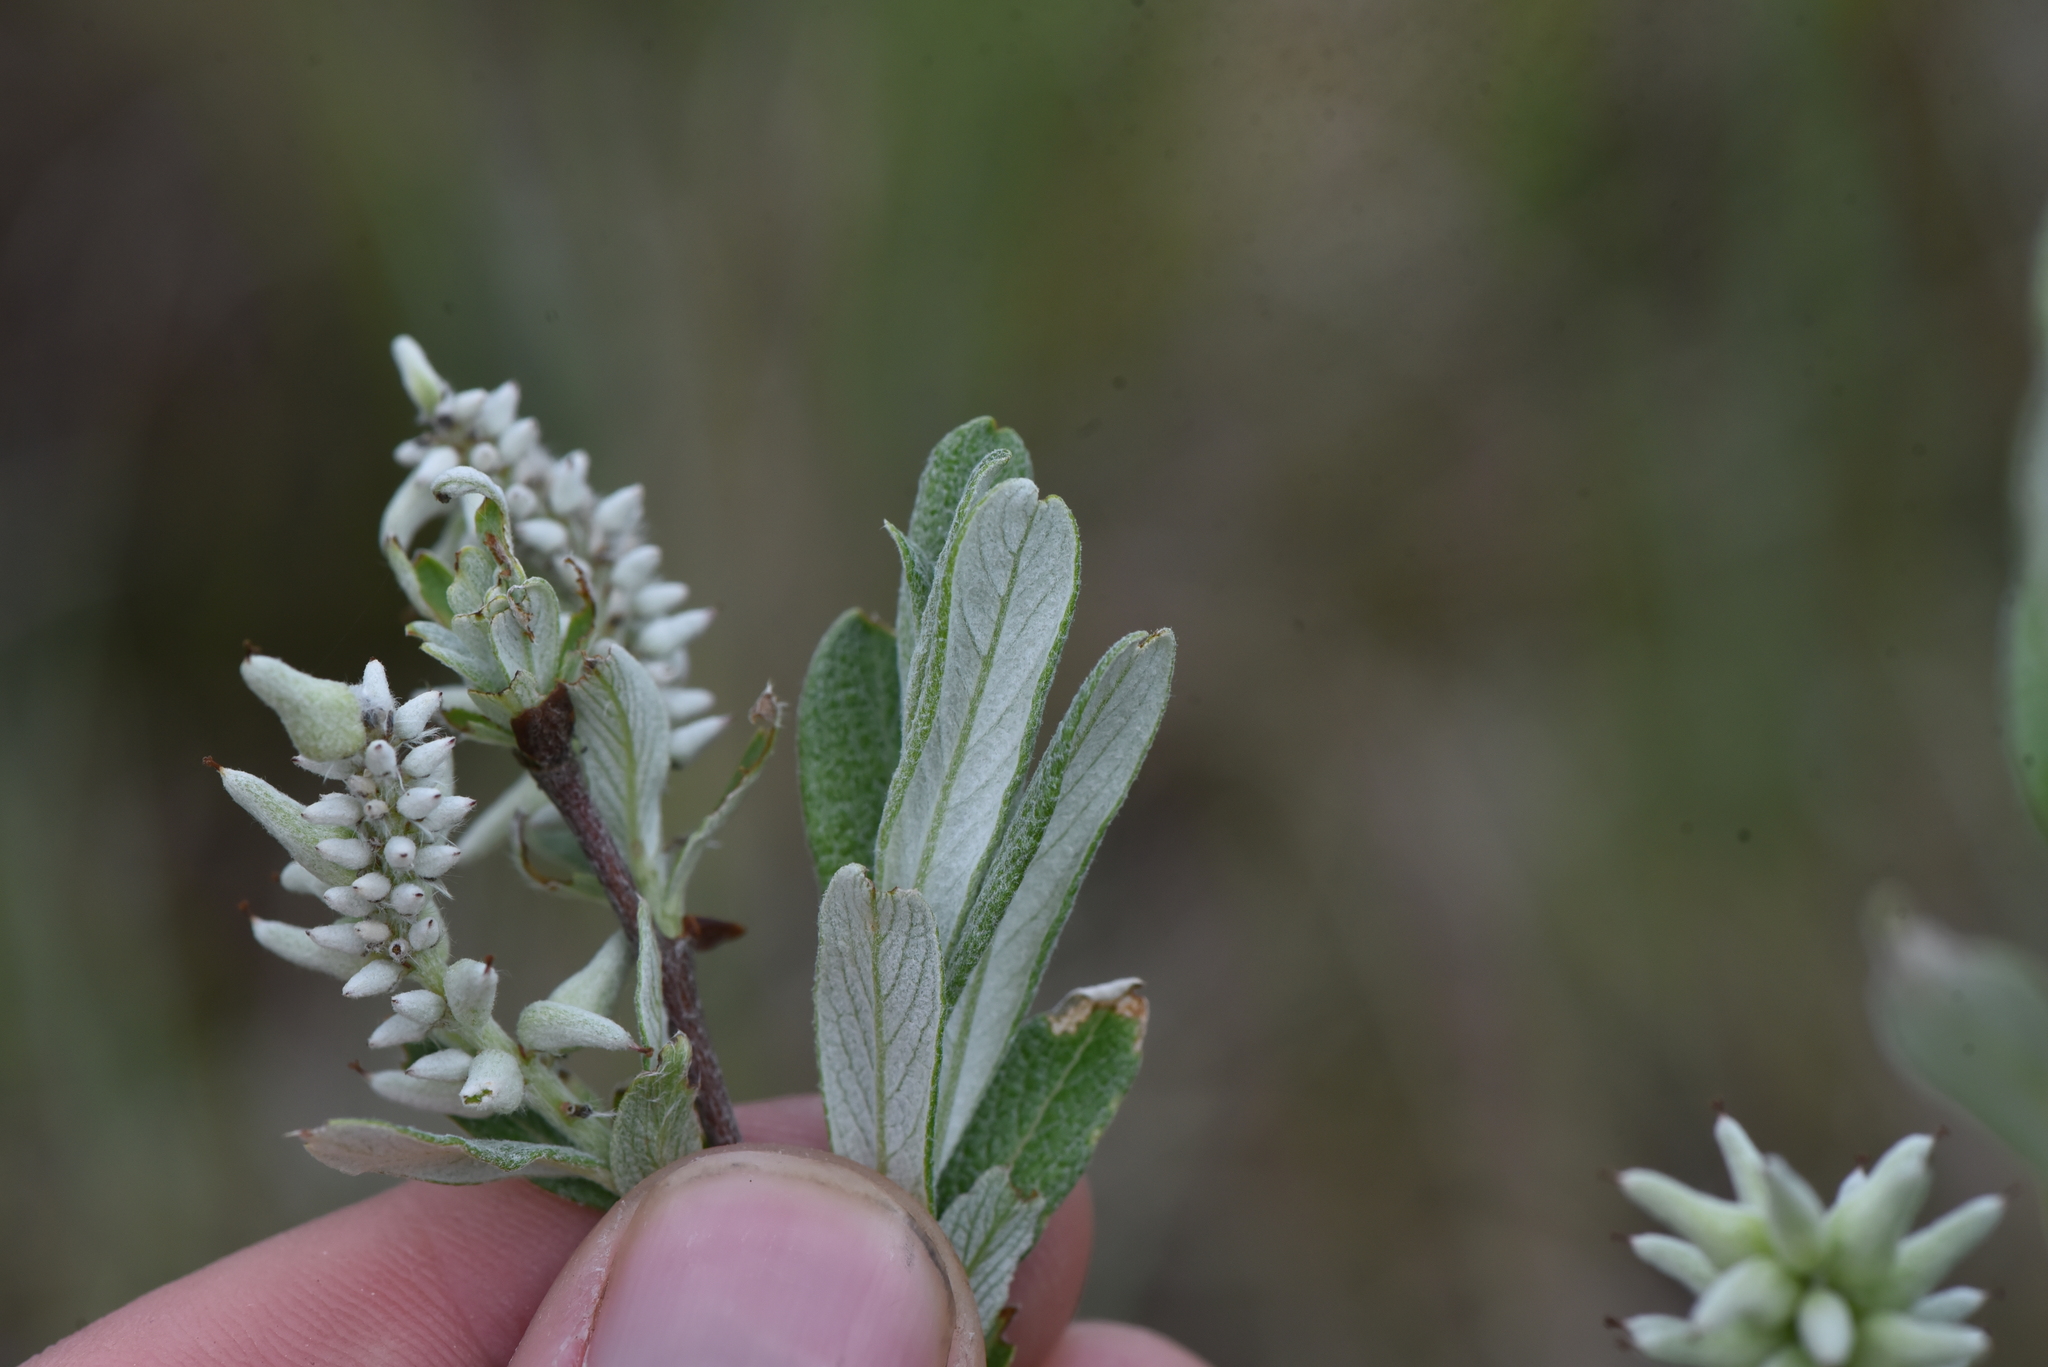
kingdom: Plantae
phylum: Tracheophyta
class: Magnoliopsida
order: Malpighiales
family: Salicaceae
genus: Salix
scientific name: Salix candida
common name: Hoary willow
